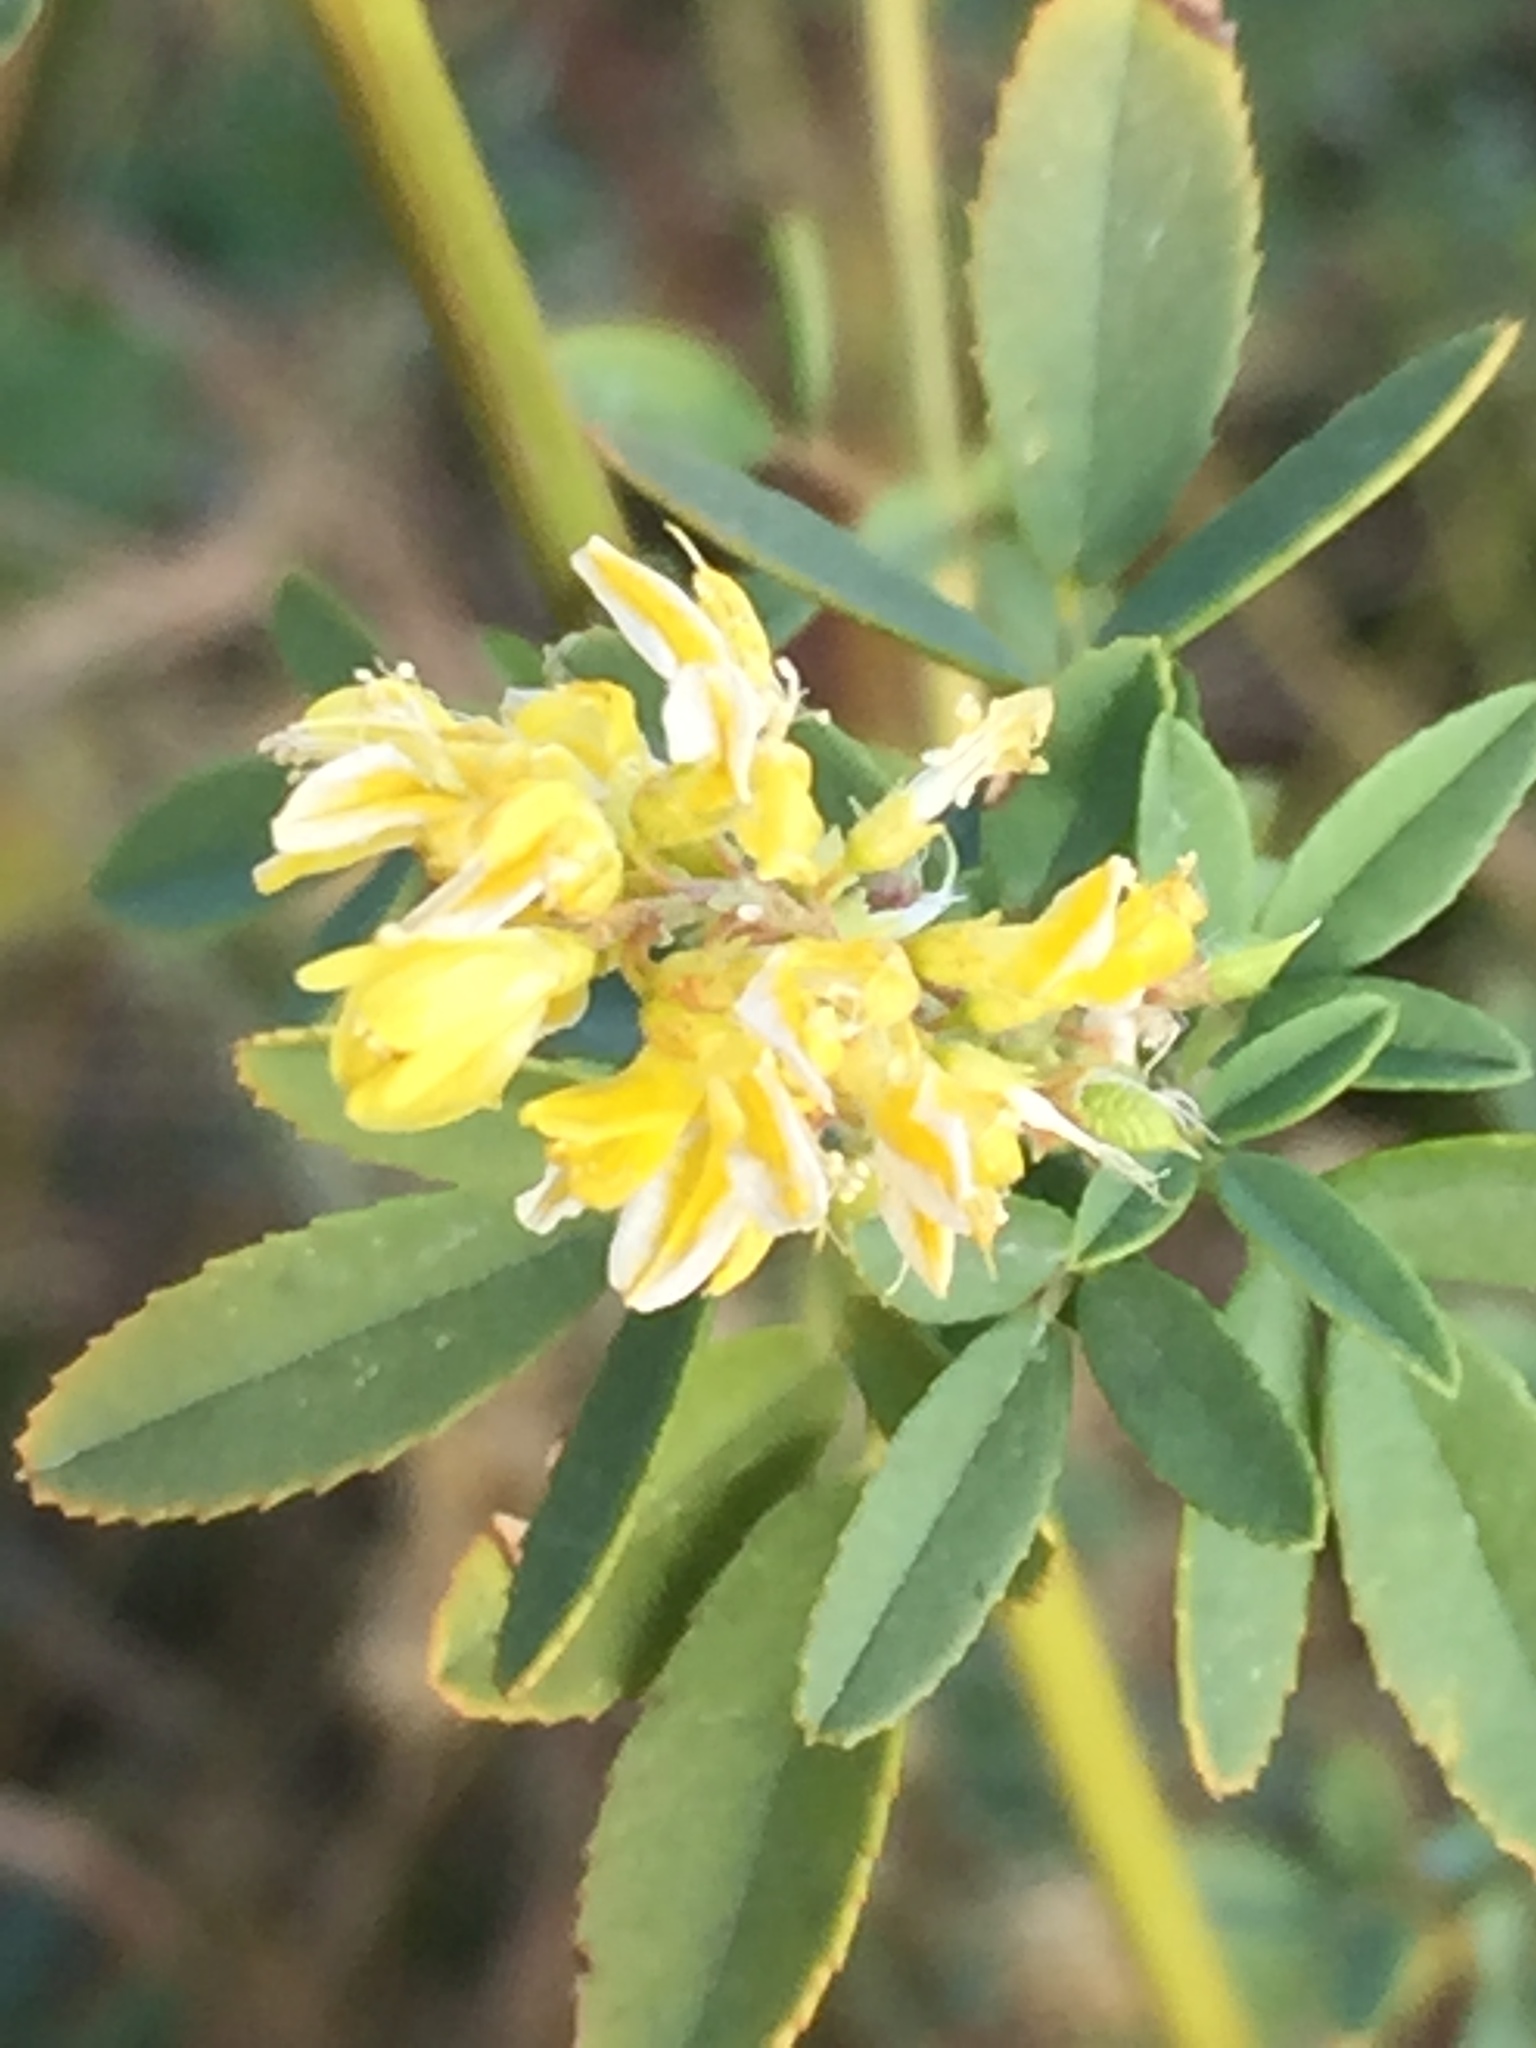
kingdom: Plantae
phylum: Tracheophyta
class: Magnoliopsida
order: Fabales
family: Fabaceae
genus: Melilotus
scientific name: Melilotus officinalis
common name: Sweetclover
